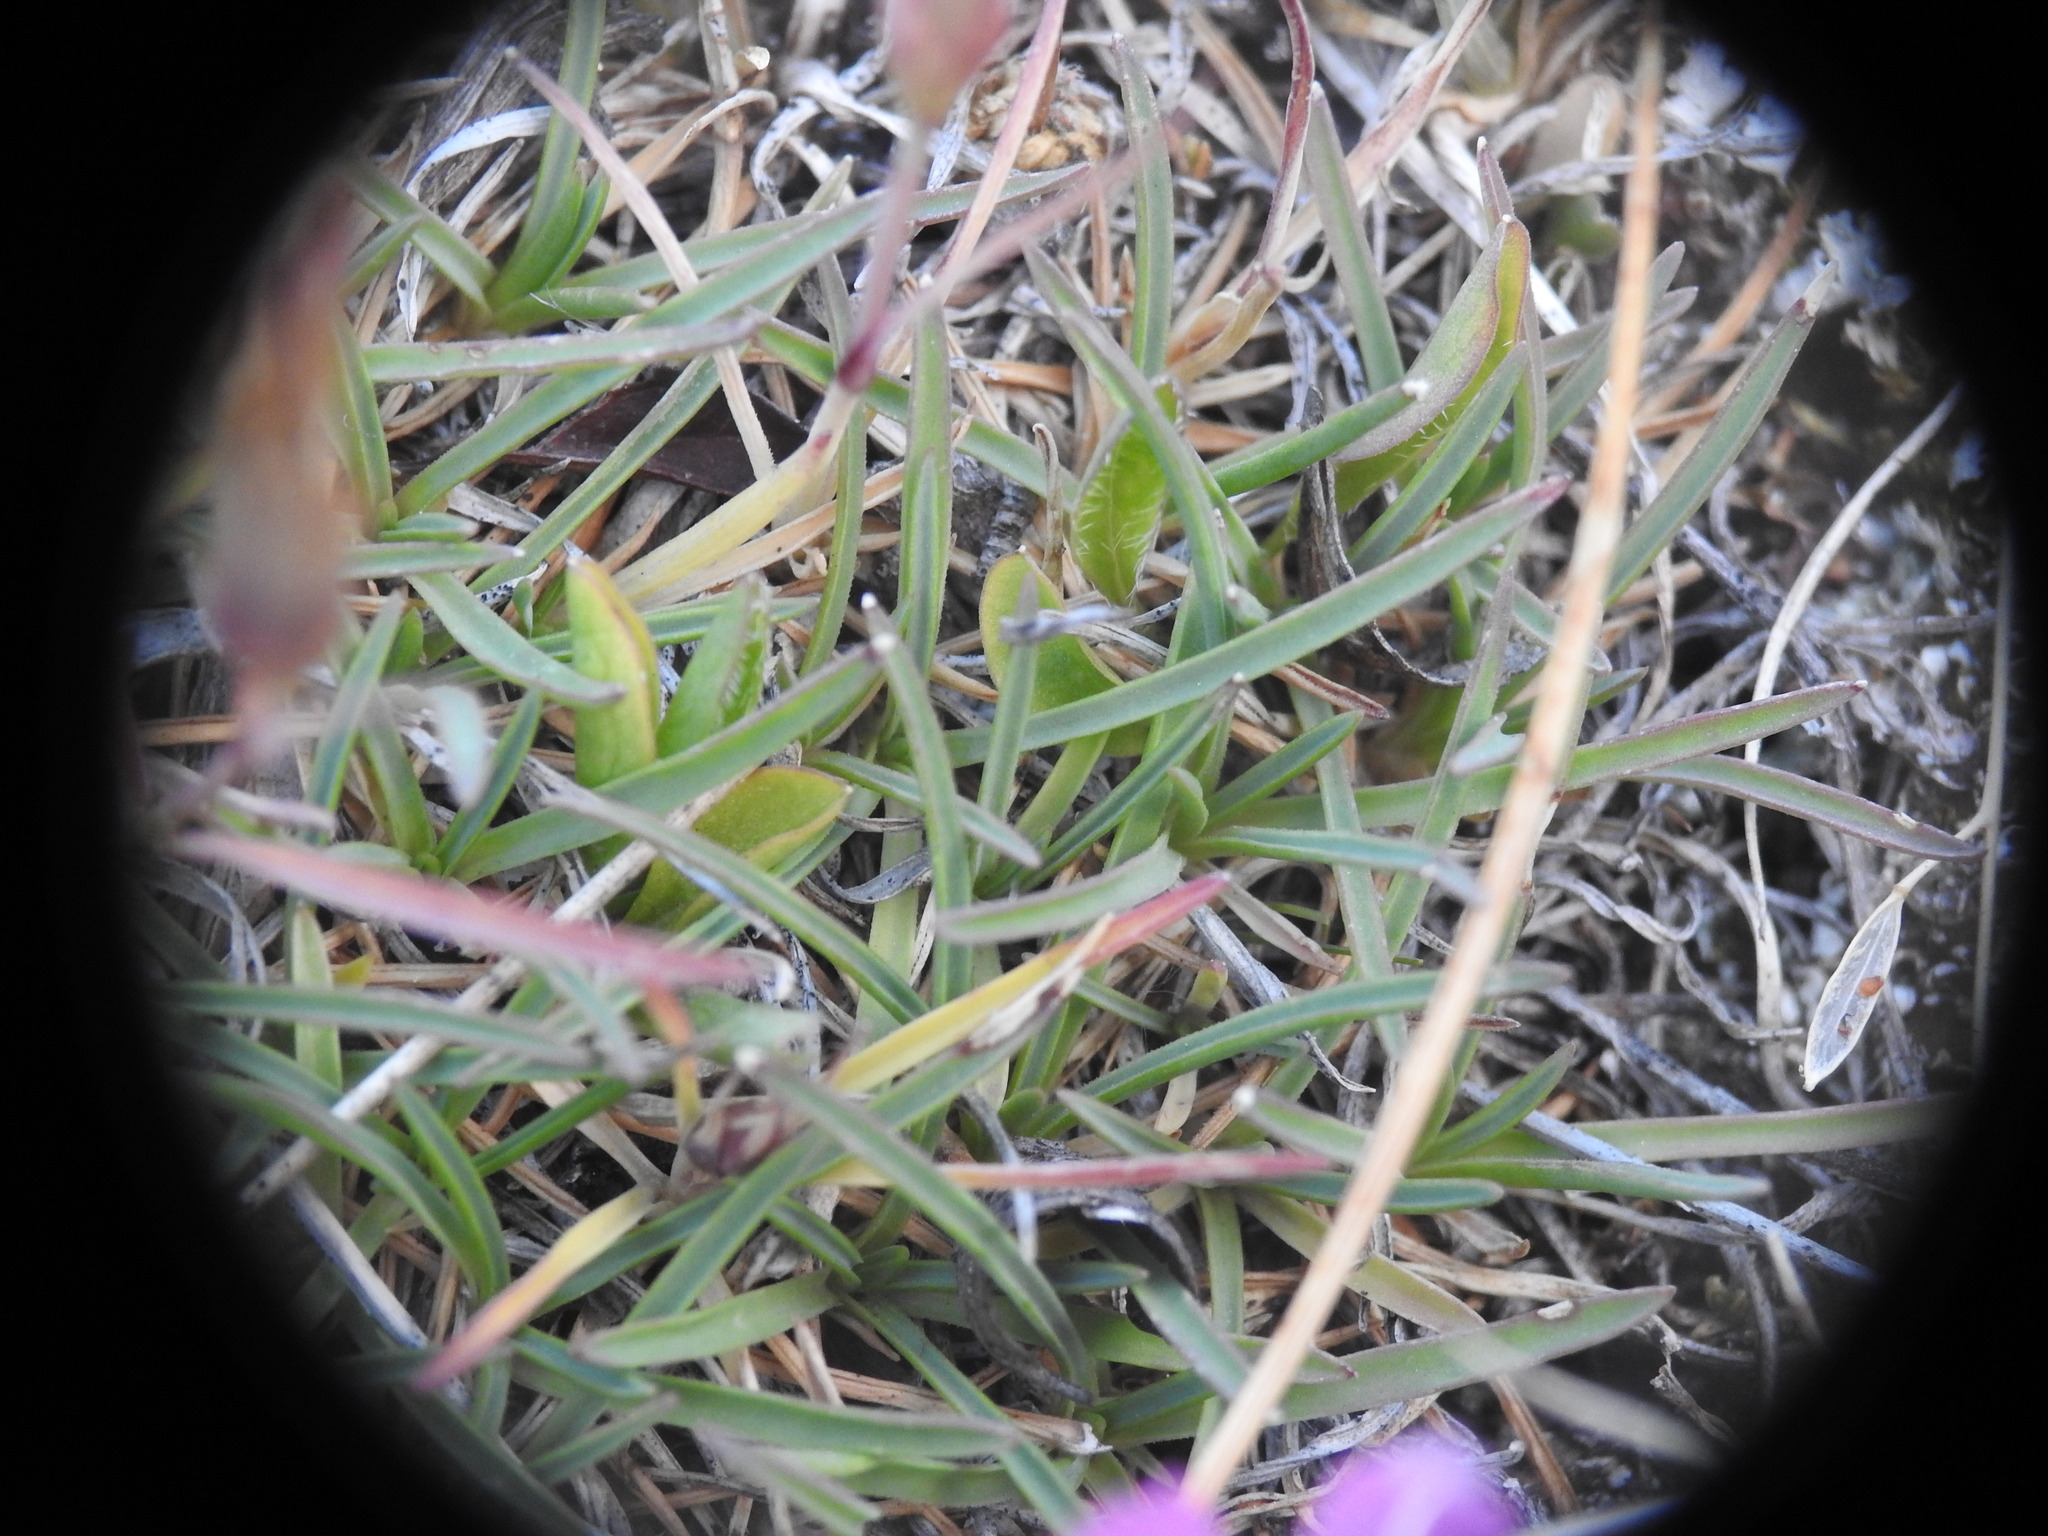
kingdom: Plantae
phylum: Tracheophyta
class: Magnoliopsida
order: Caryophyllales
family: Caryophyllaceae
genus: Dianthus
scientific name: Dianthus pavonius
